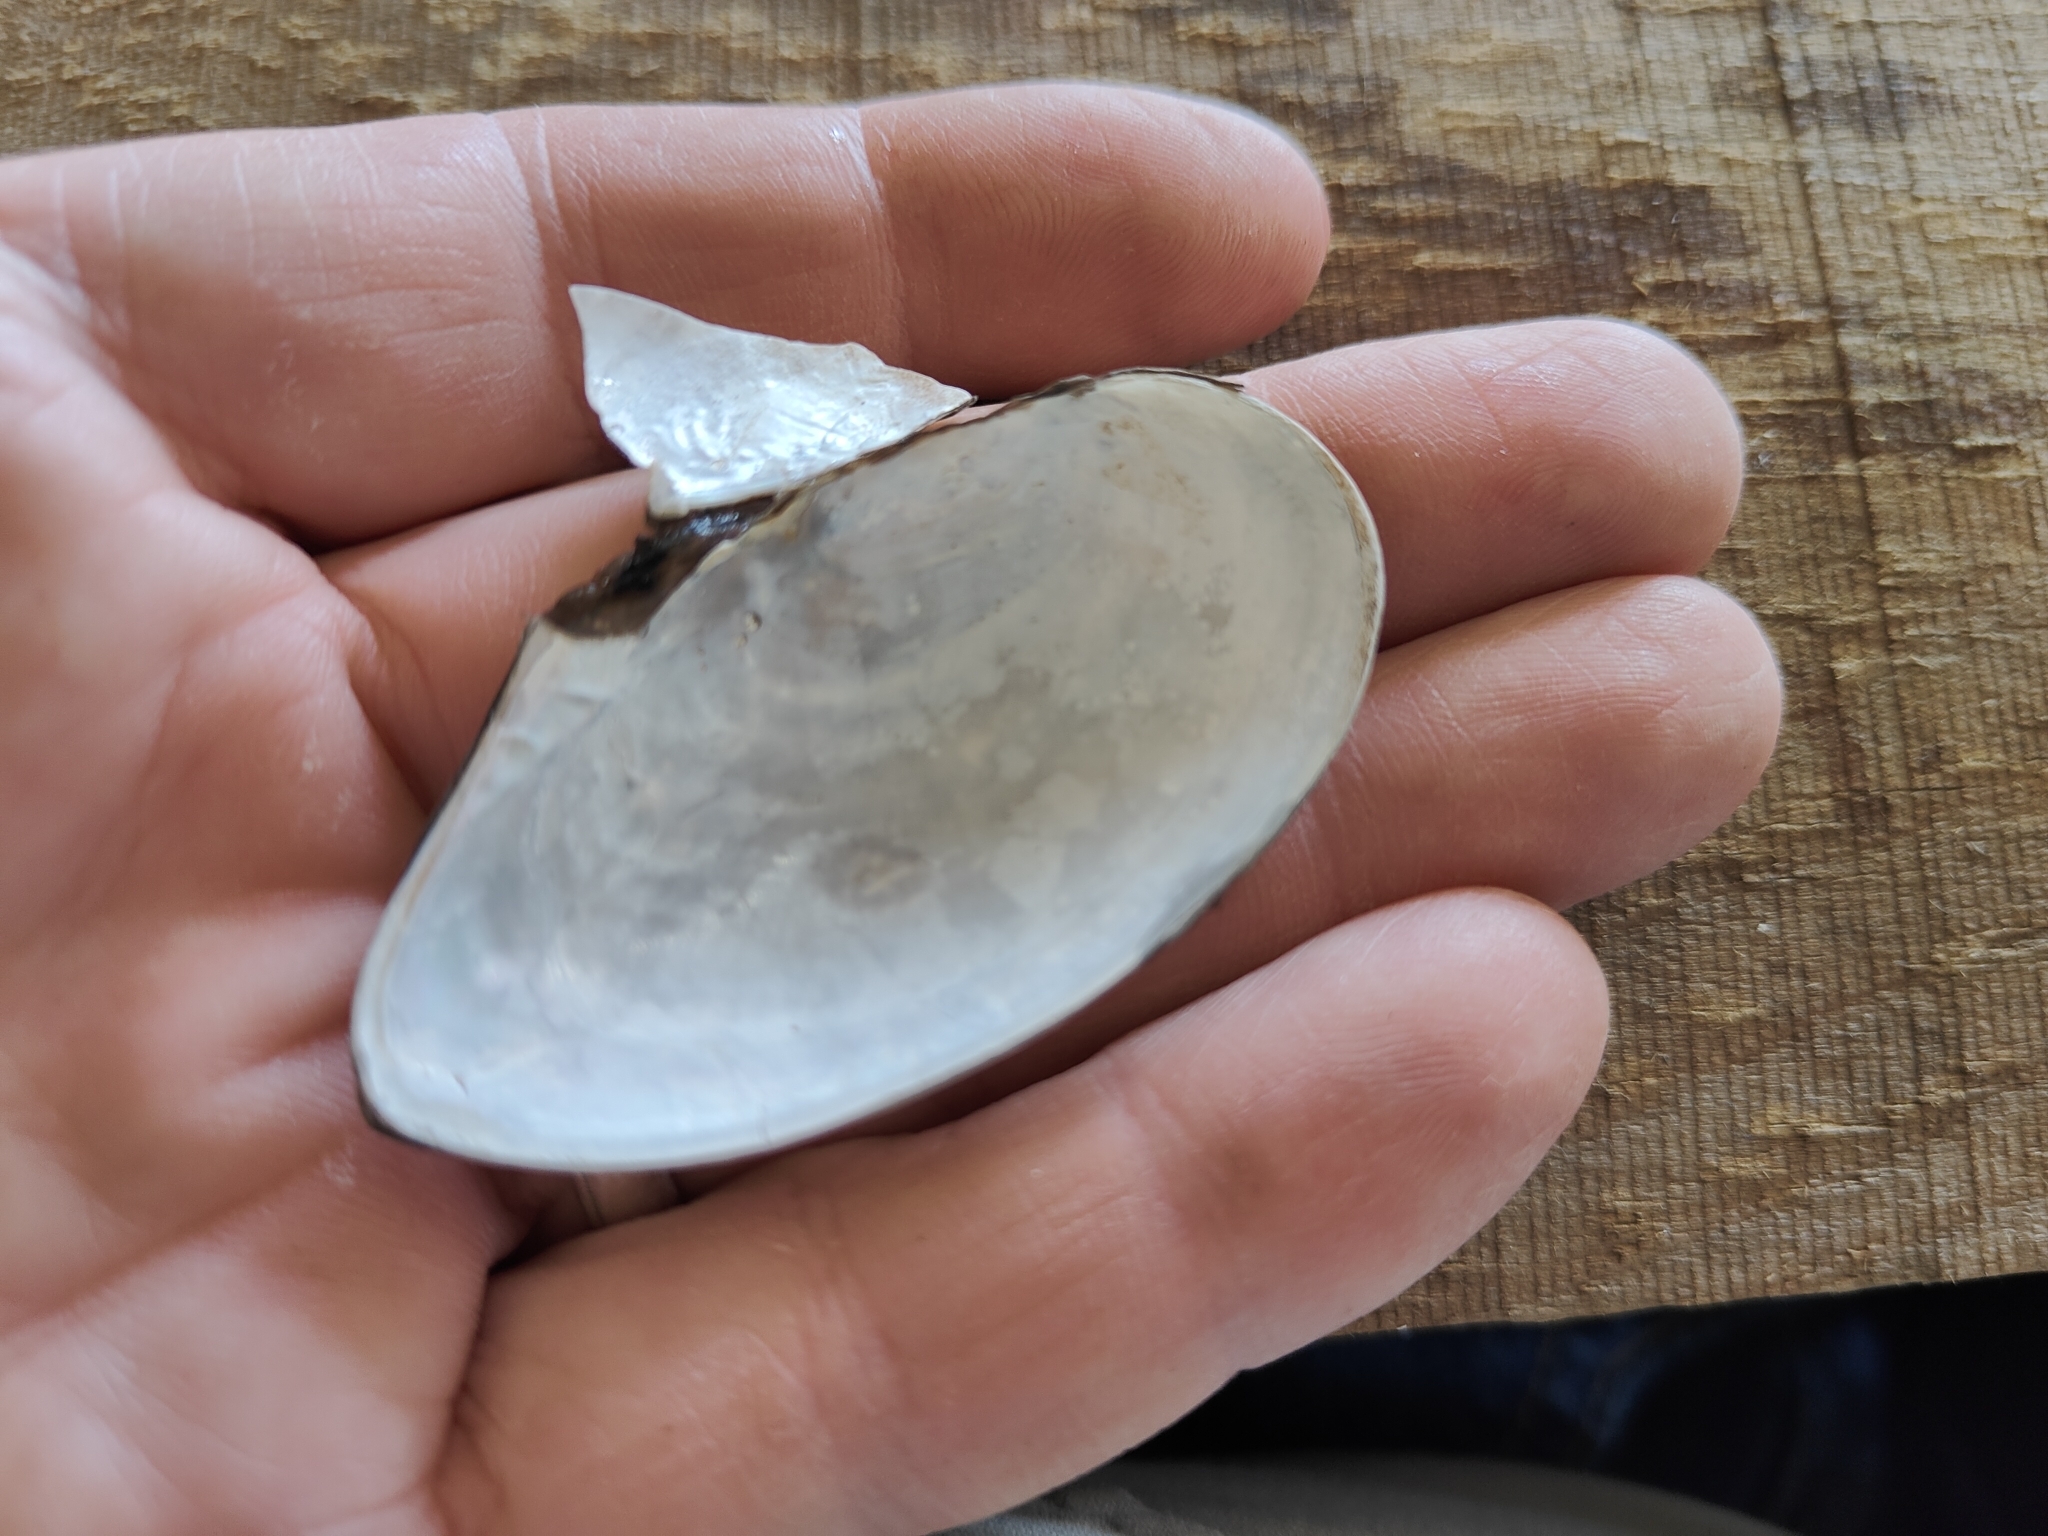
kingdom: Animalia
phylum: Mollusca
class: Bivalvia
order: Unionida
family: Unionidae
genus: Utterbackia
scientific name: Utterbackia imbecillis
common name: Paper pondshell
